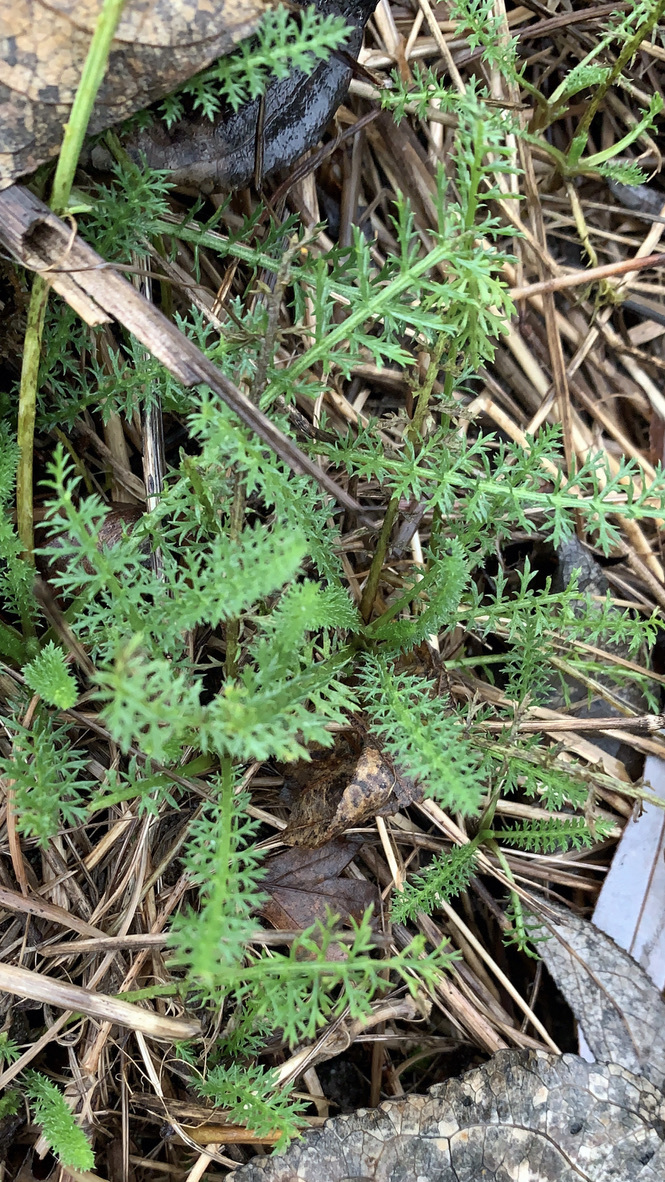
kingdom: Plantae
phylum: Tracheophyta
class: Magnoliopsida
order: Asterales
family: Asteraceae
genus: Achillea
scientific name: Achillea millefolium
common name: Yarrow
